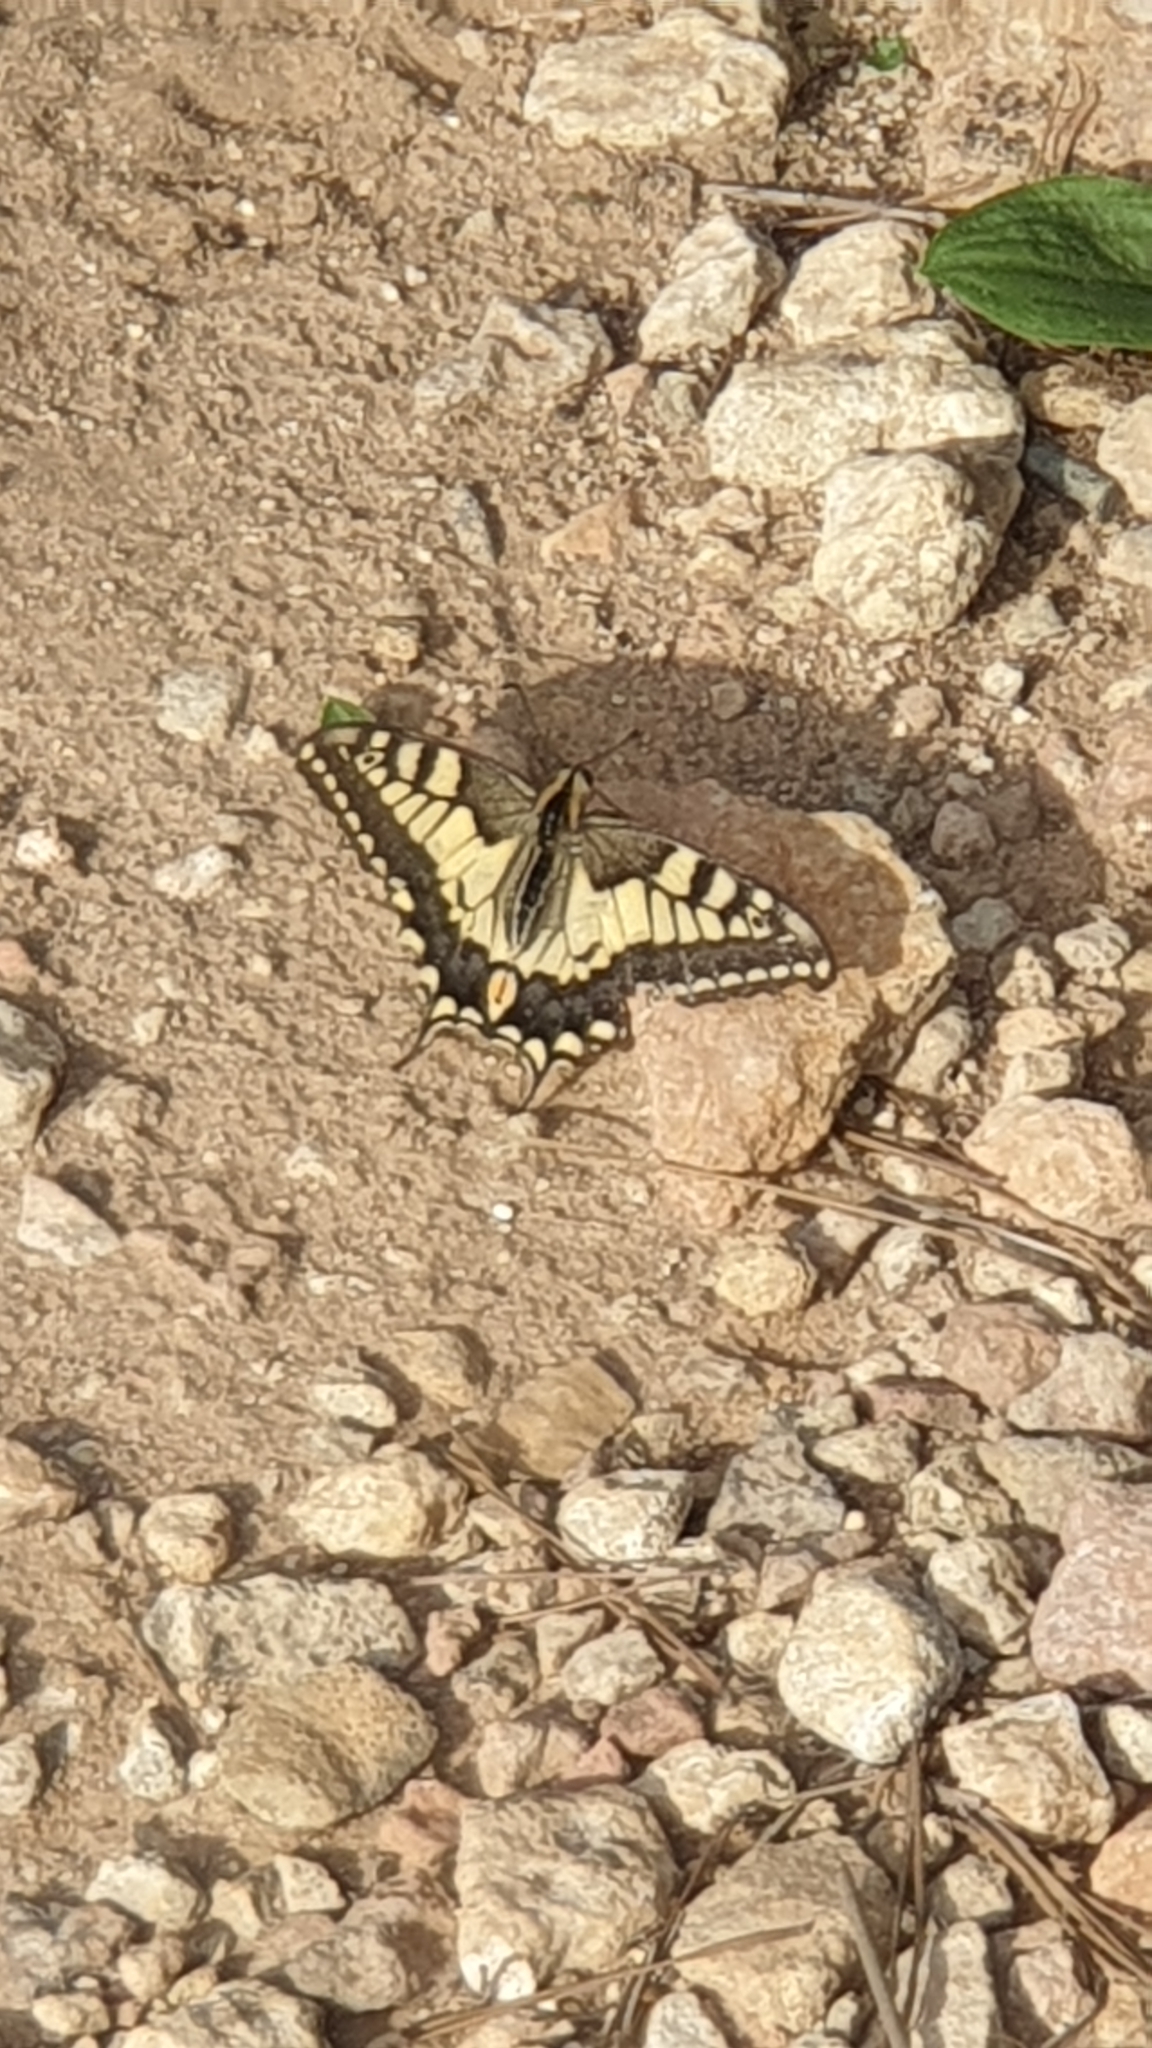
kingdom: Animalia
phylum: Arthropoda
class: Insecta
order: Lepidoptera
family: Papilionidae
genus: Papilio
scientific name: Papilio machaon
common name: Swallowtail
